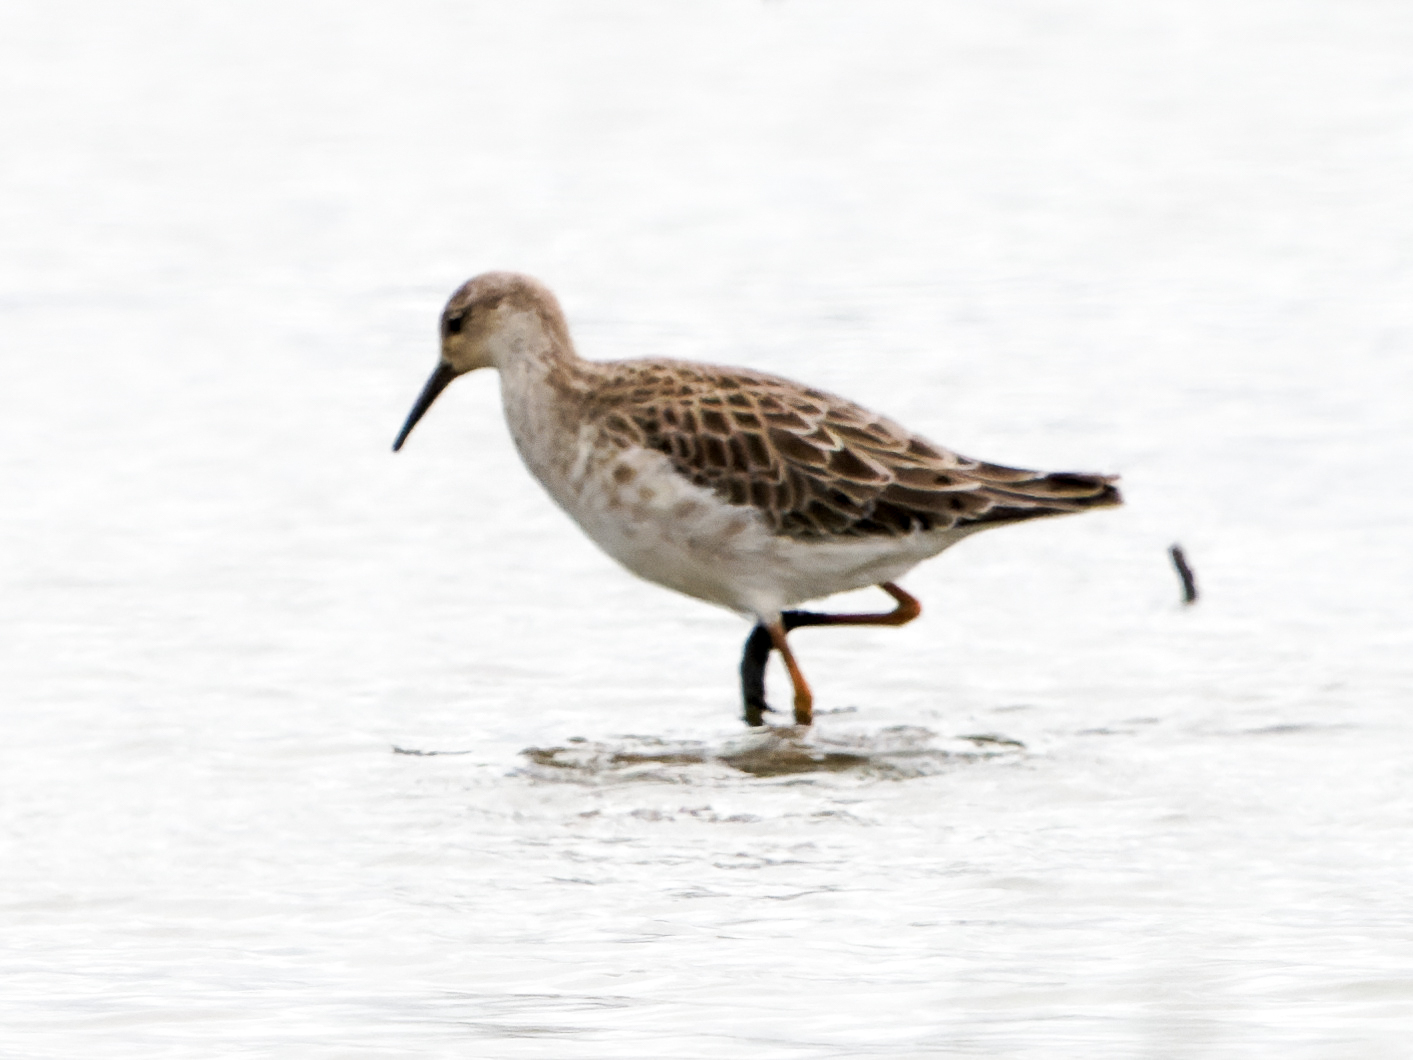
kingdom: Animalia
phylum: Chordata
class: Aves
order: Charadriiformes
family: Scolopacidae
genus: Calidris
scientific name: Calidris pugnax
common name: Ruff
